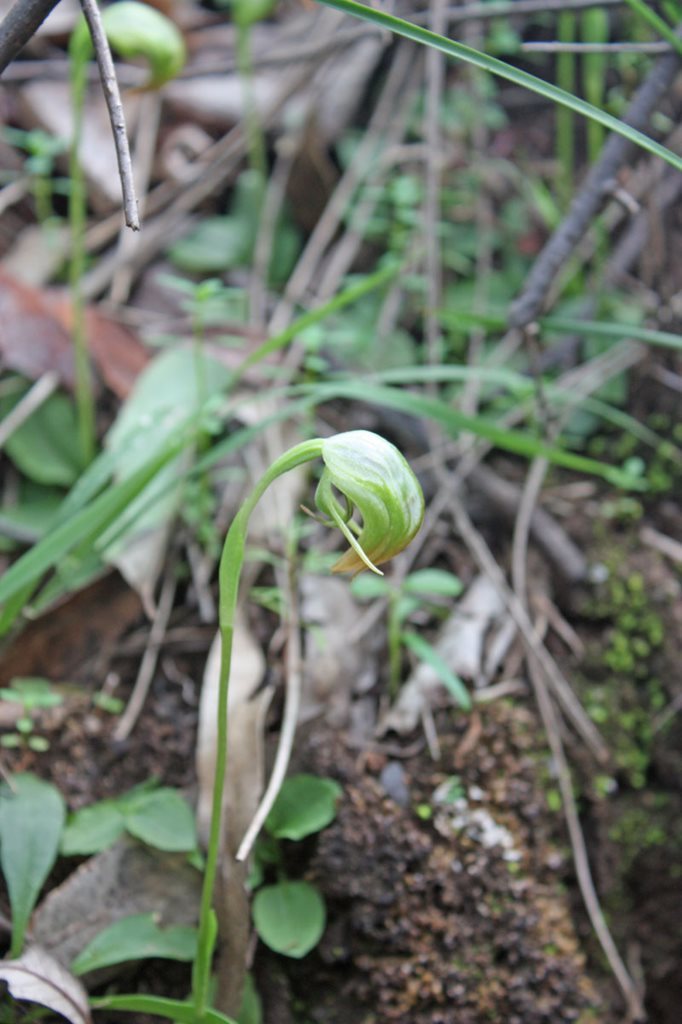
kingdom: Plantae
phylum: Tracheophyta
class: Liliopsida
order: Asparagales
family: Orchidaceae
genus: Pterostylis
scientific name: Pterostylis nutans
